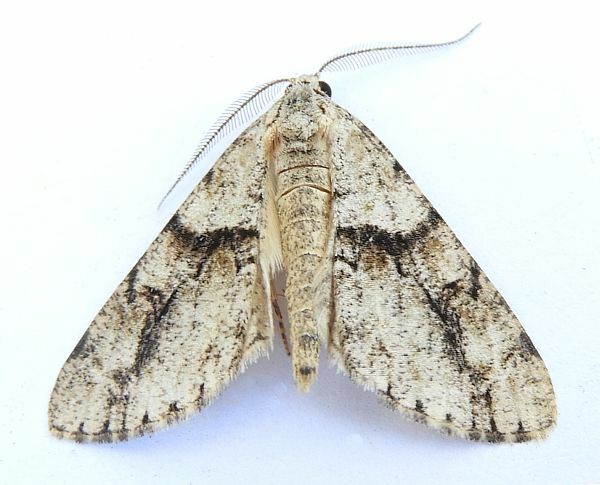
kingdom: Animalia
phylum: Arthropoda
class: Insecta
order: Lepidoptera
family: Geometridae
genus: Vinemina
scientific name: Vinemina opacaria
